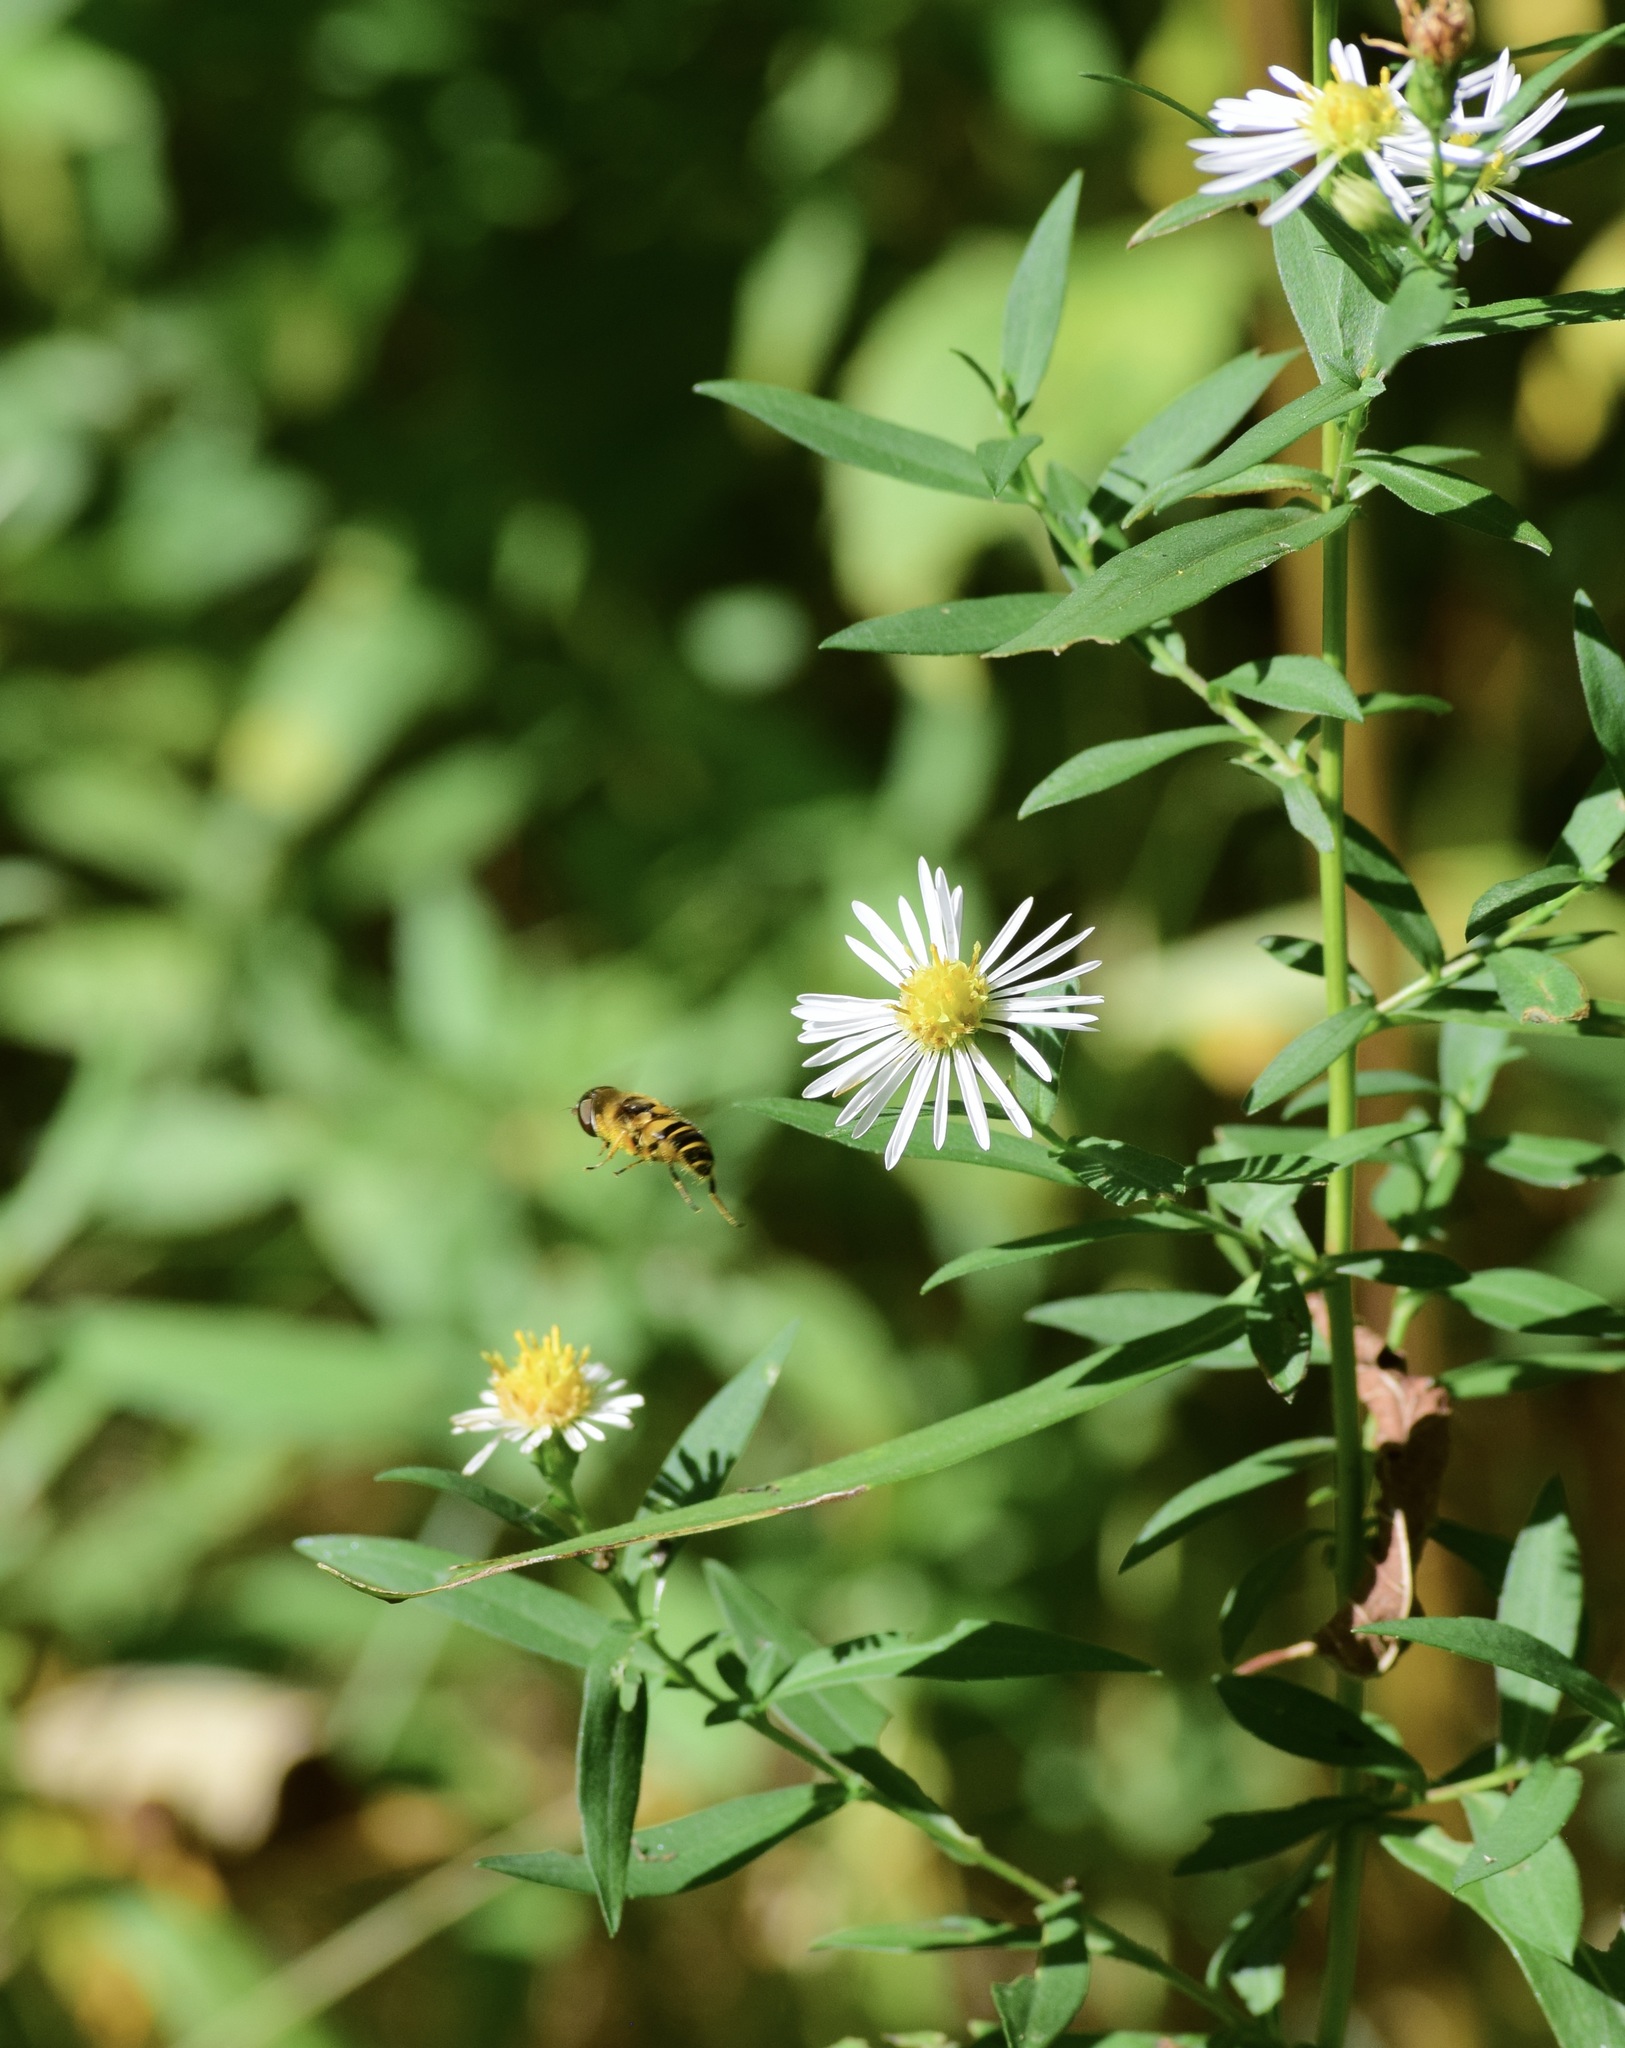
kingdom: Animalia
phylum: Arthropoda
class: Insecta
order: Diptera
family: Syrphidae
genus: Eristalis
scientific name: Eristalis transversa
